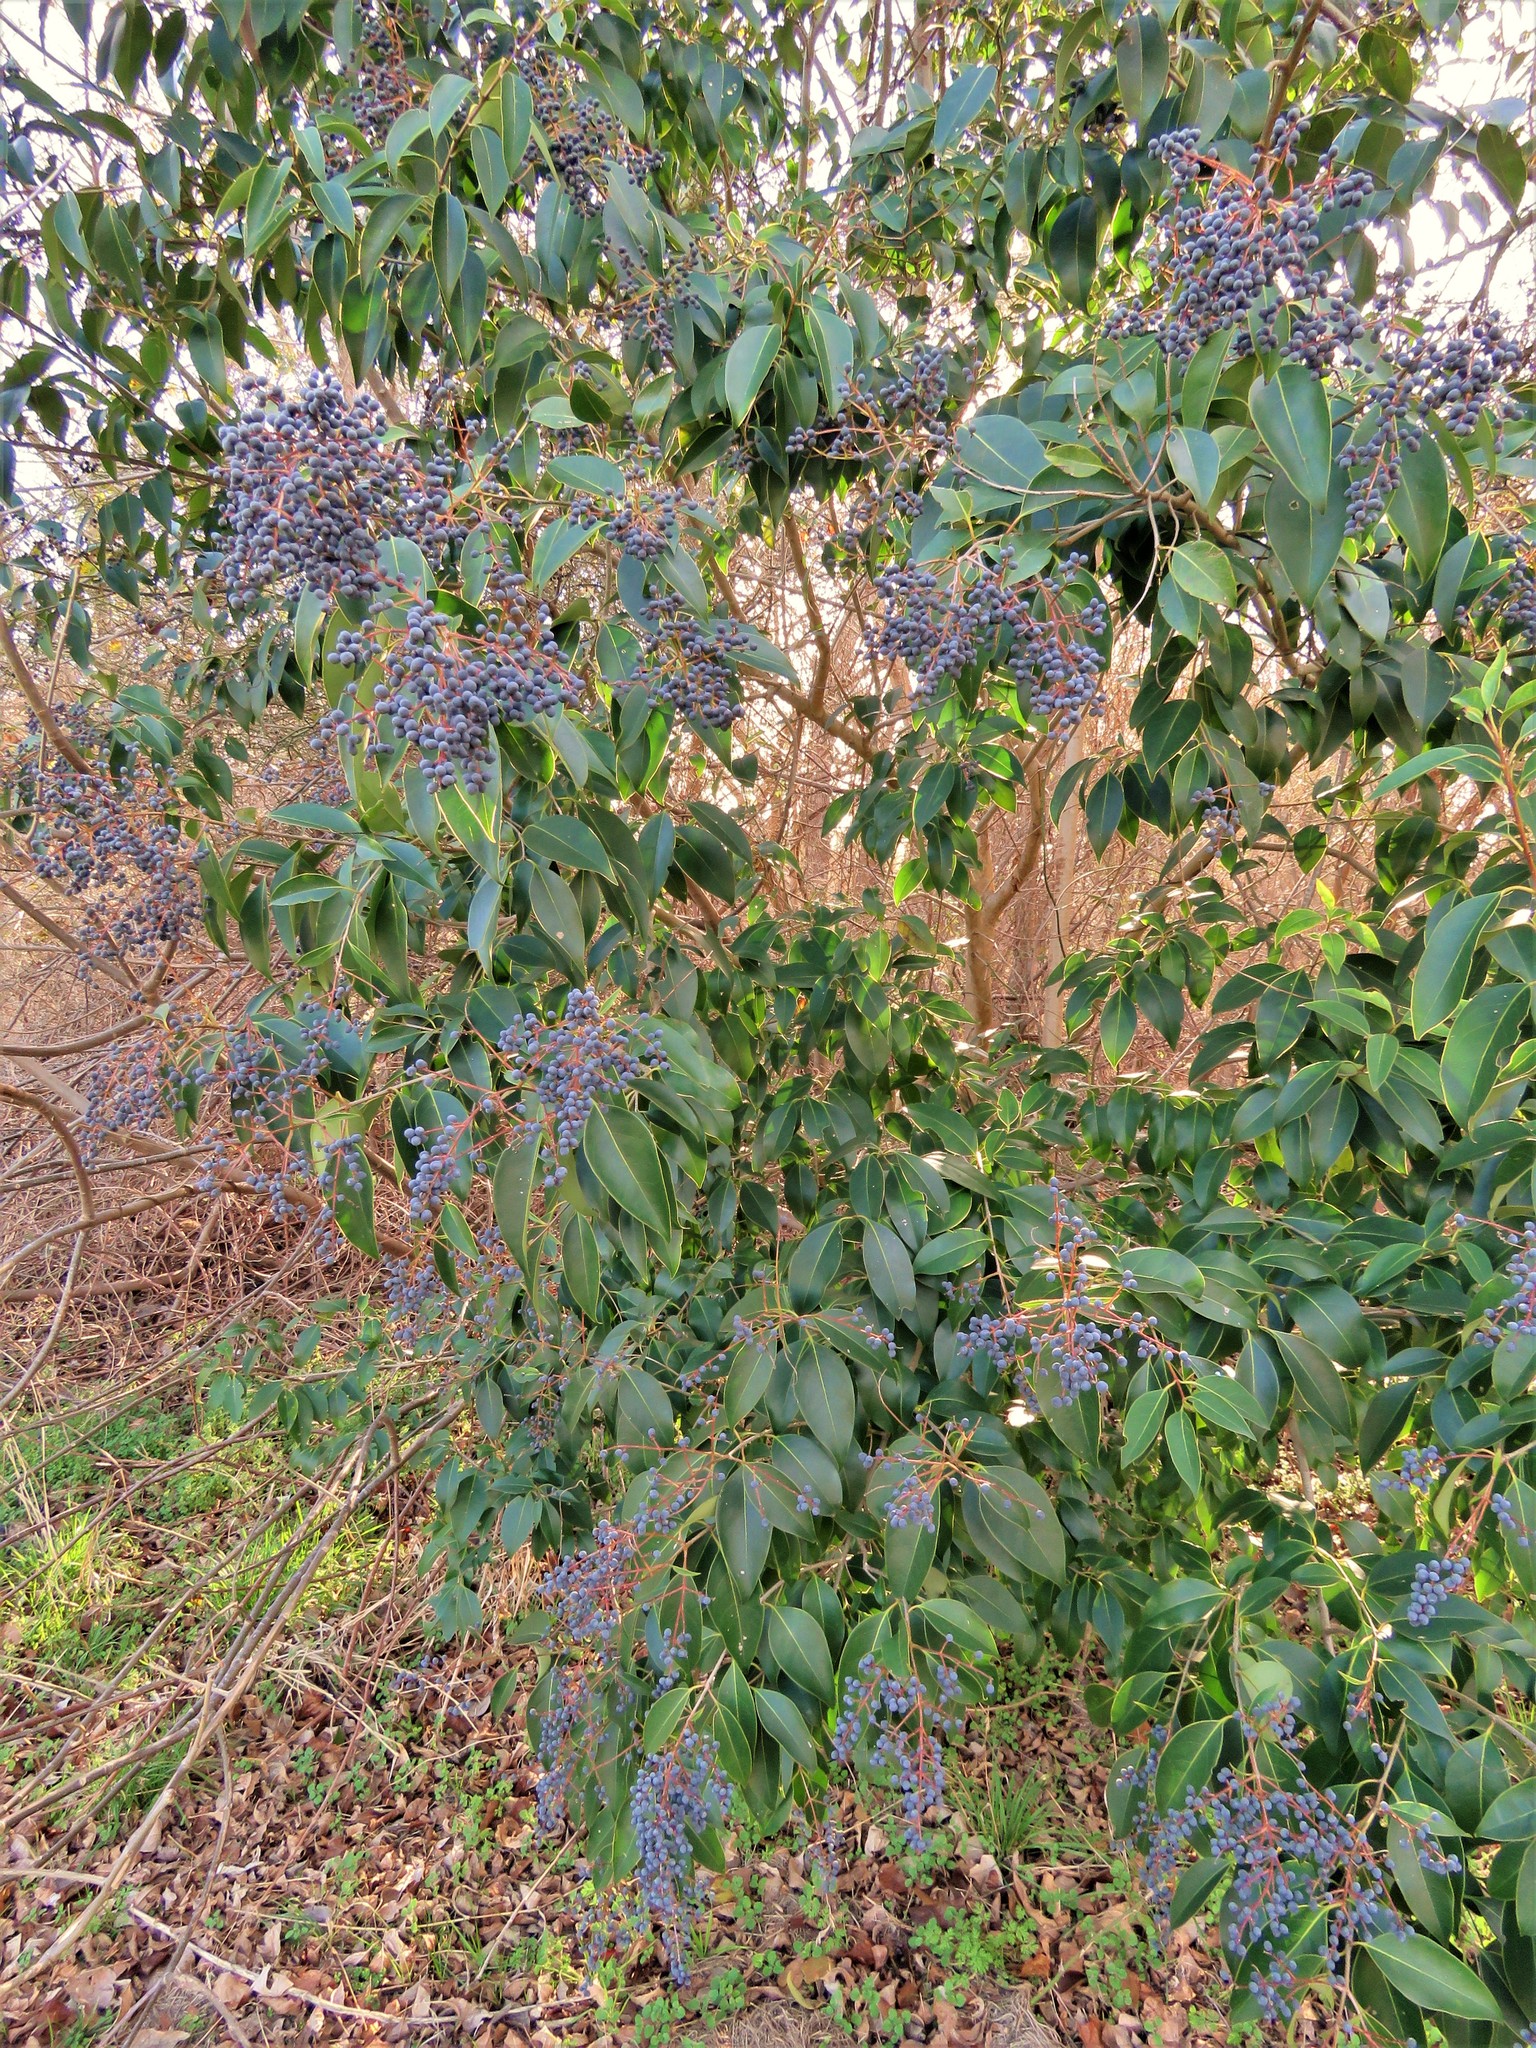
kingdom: Plantae
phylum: Tracheophyta
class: Magnoliopsida
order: Lamiales
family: Oleaceae
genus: Ligustrum
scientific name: Ligustrum lucidum
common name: Glossy privet
